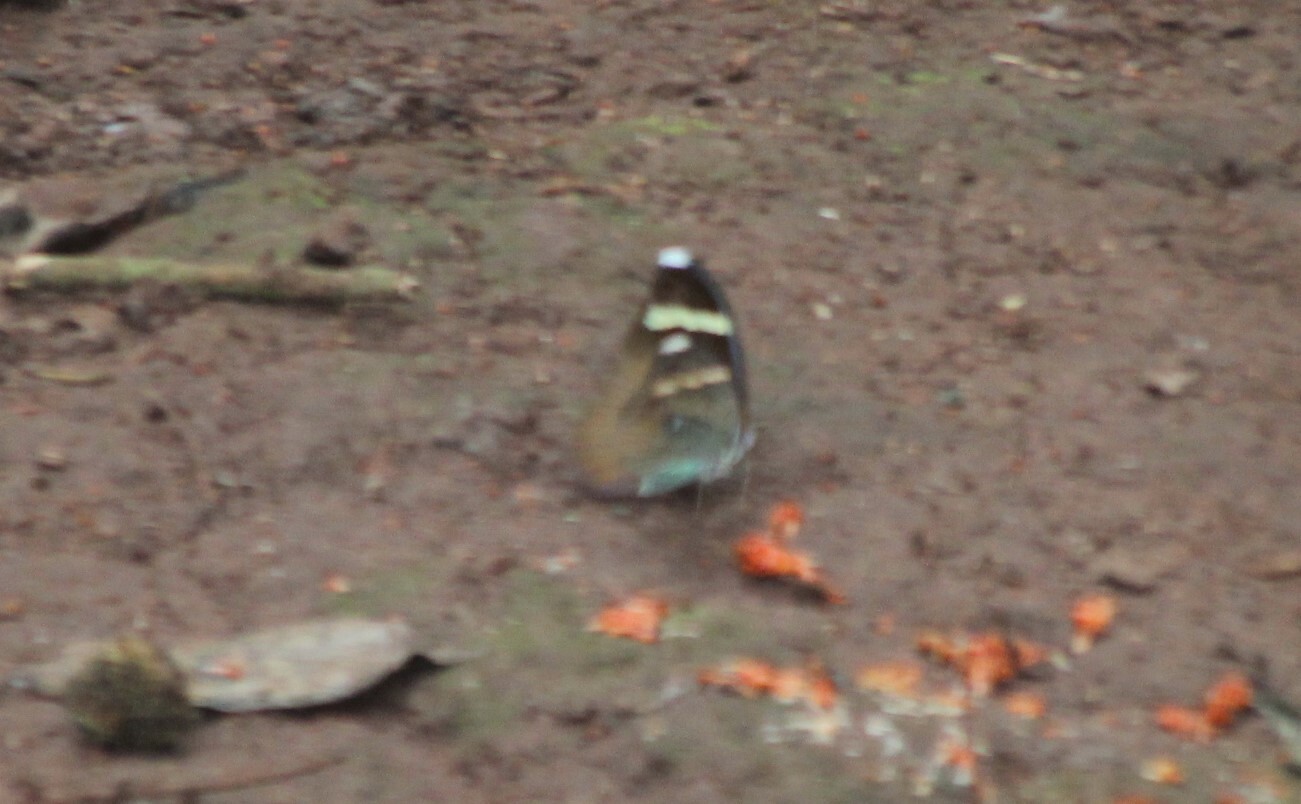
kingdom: Animalia
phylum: Arthropoda
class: Insecta
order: Lepidoptera
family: Nymphalidae
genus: Euphaedra
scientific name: Euphaedra medon
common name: Widespread forester
